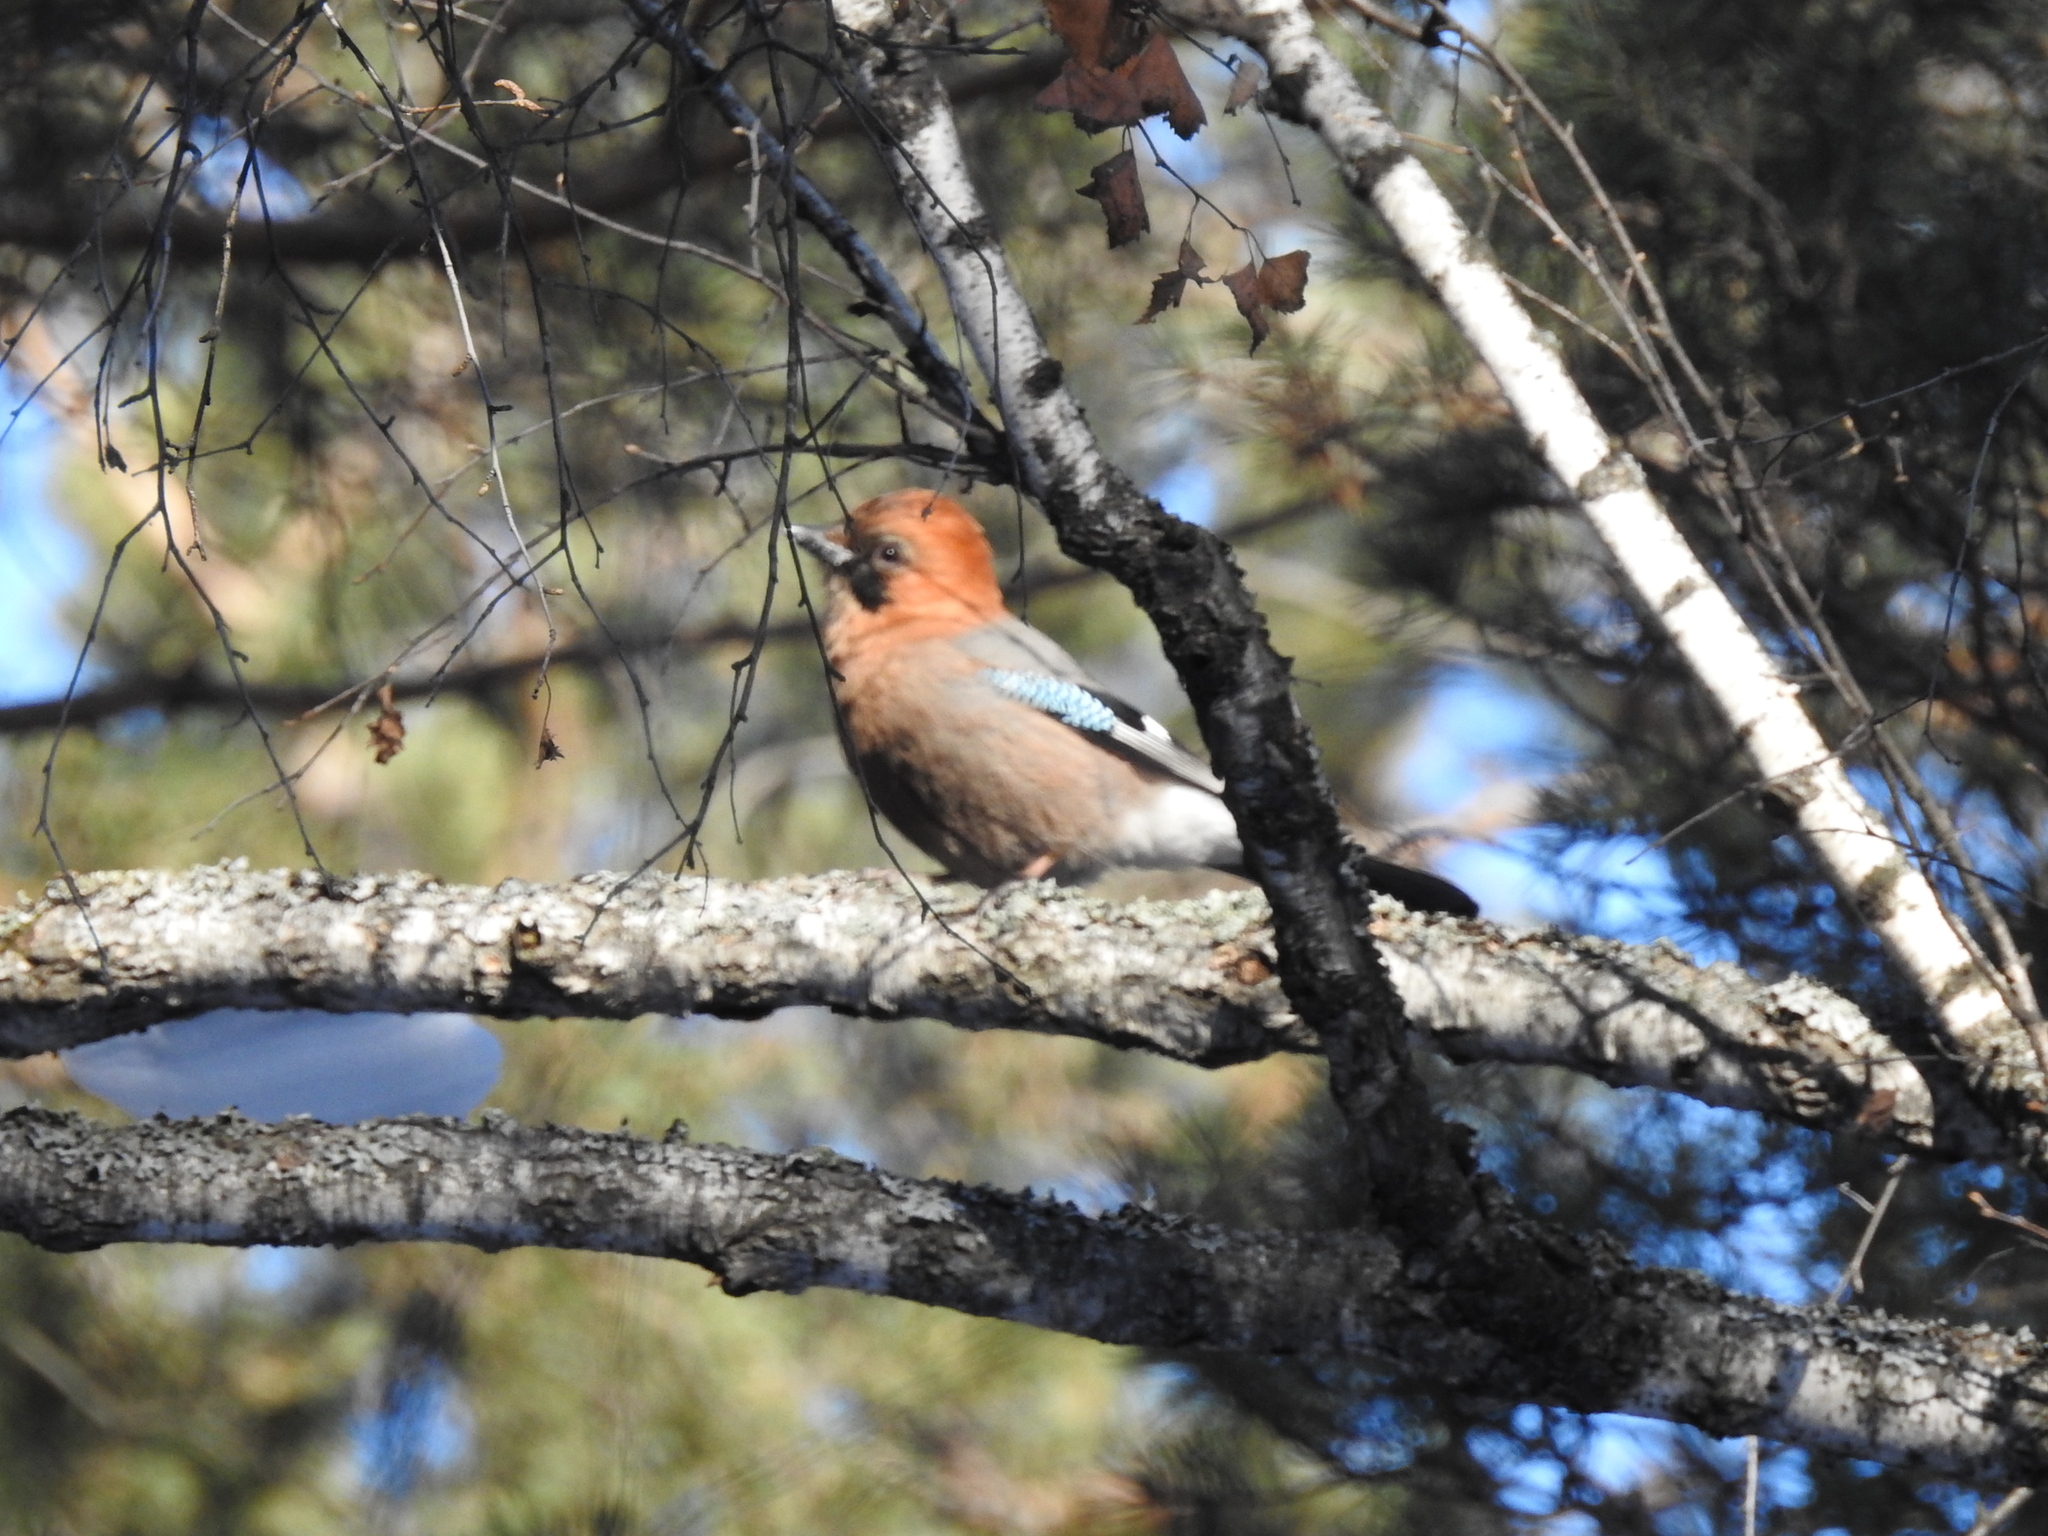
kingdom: Animalia
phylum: Chordata
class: Aves
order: Passeriformes
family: Corvidae
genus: Garrulus
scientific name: Garrulus glandarius
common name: Eurasian jay
